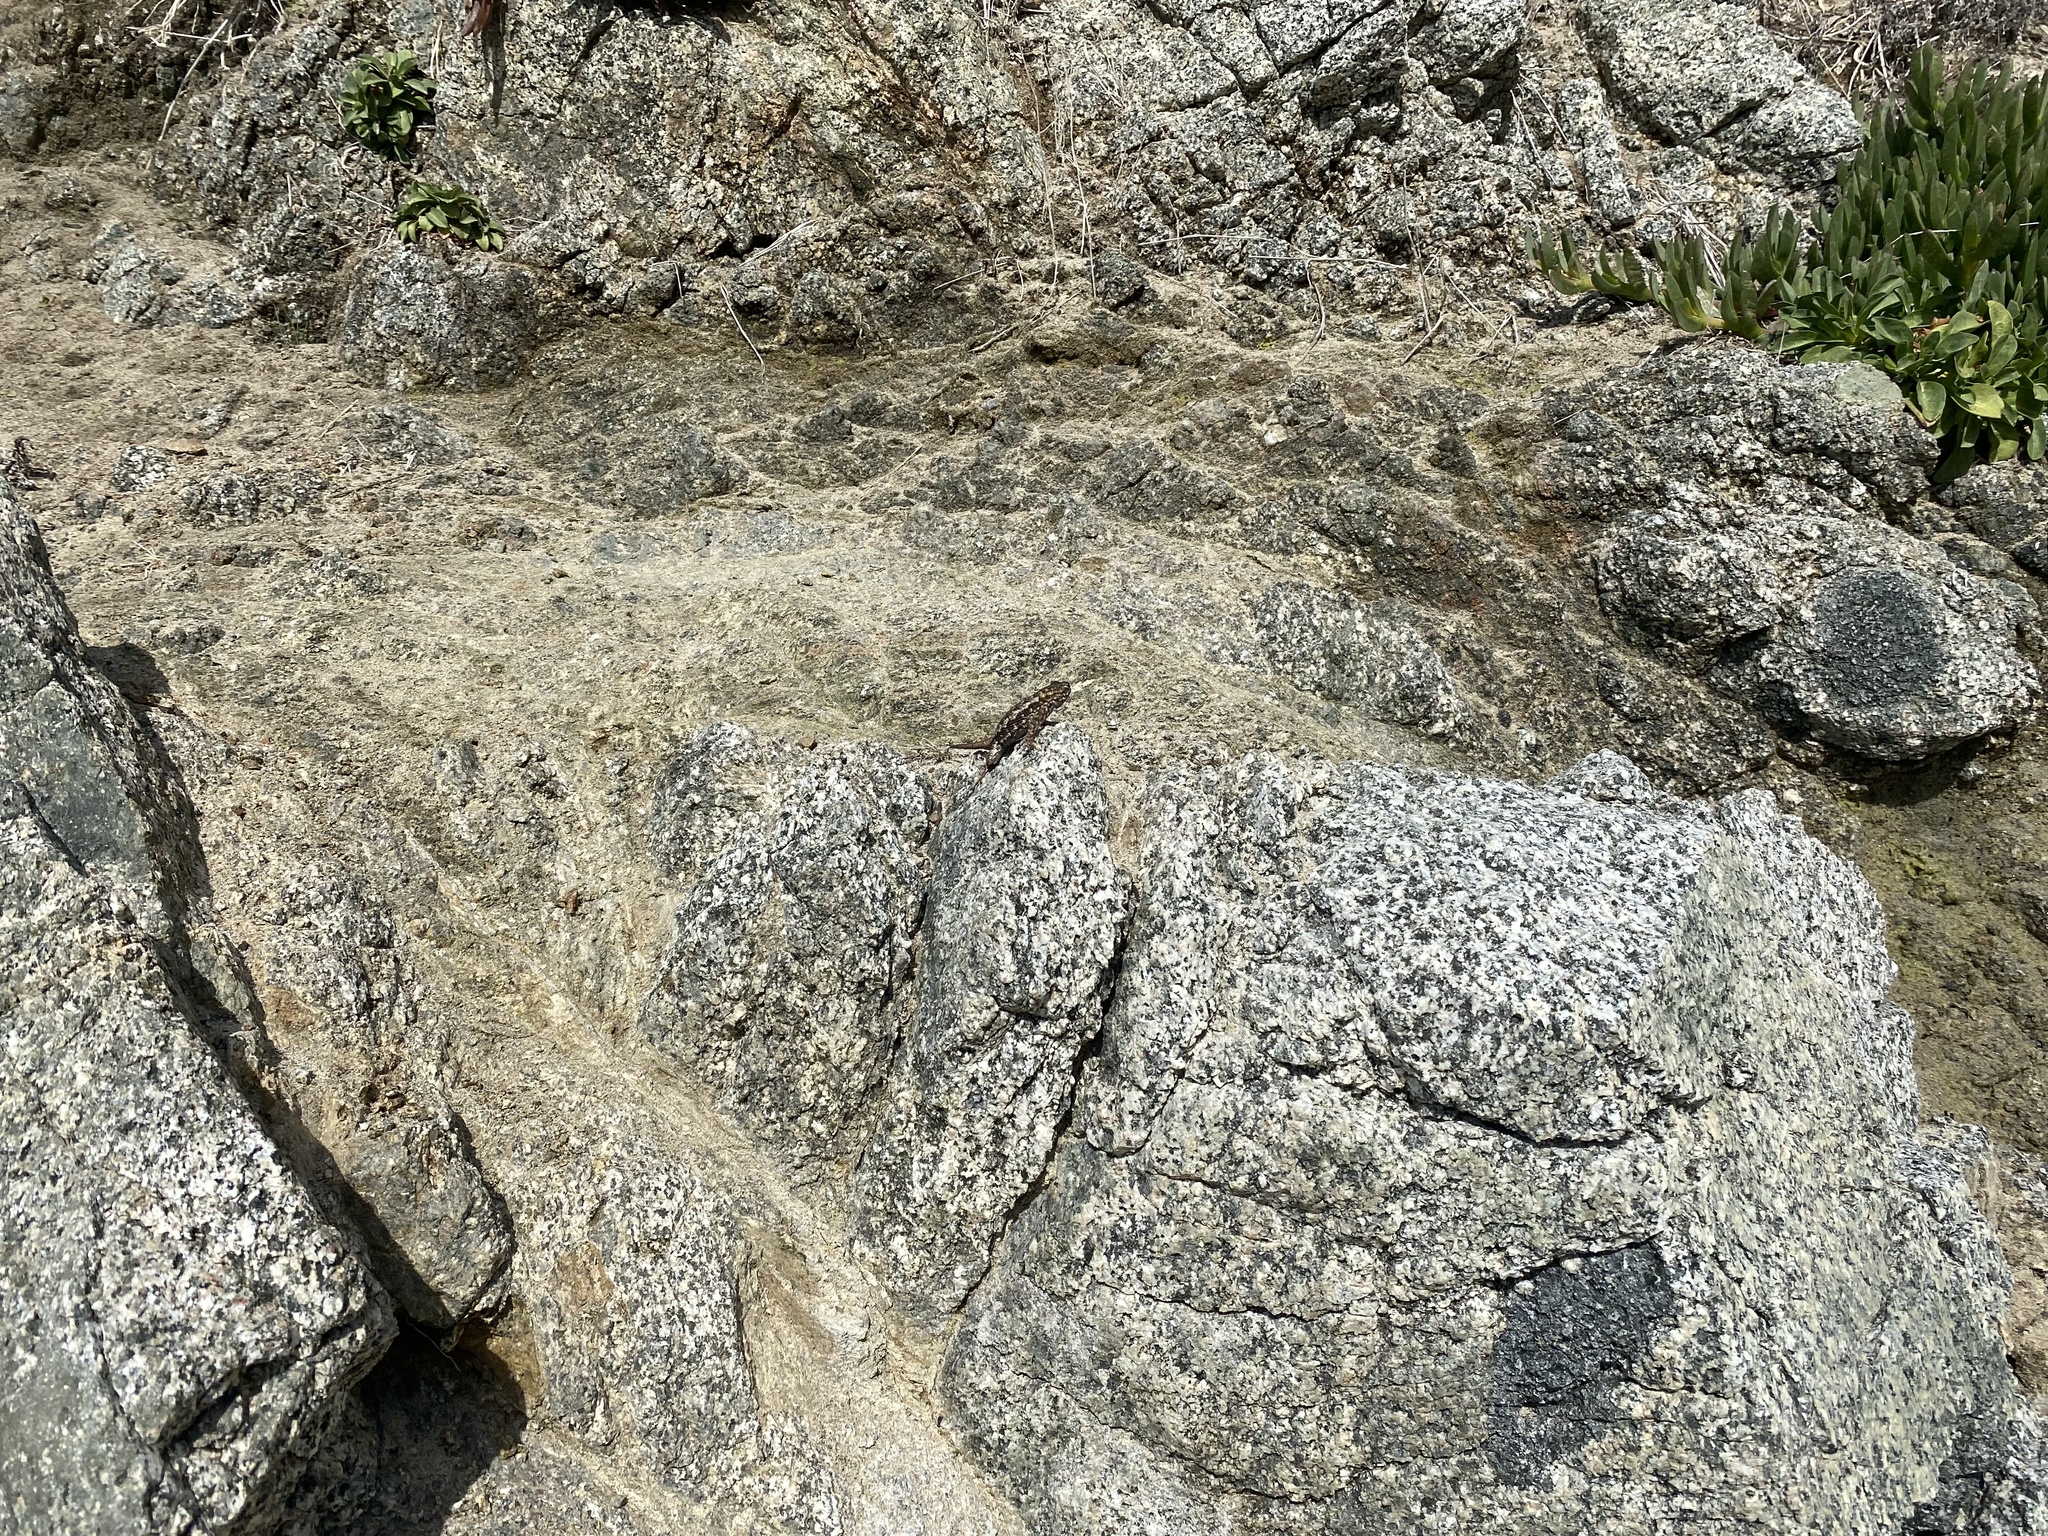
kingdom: Animalia
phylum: Chordata
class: Squamata
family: Phrynosomatidae
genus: Sceloporus
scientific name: Sceloporus occidentalis
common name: Western fence lizard
